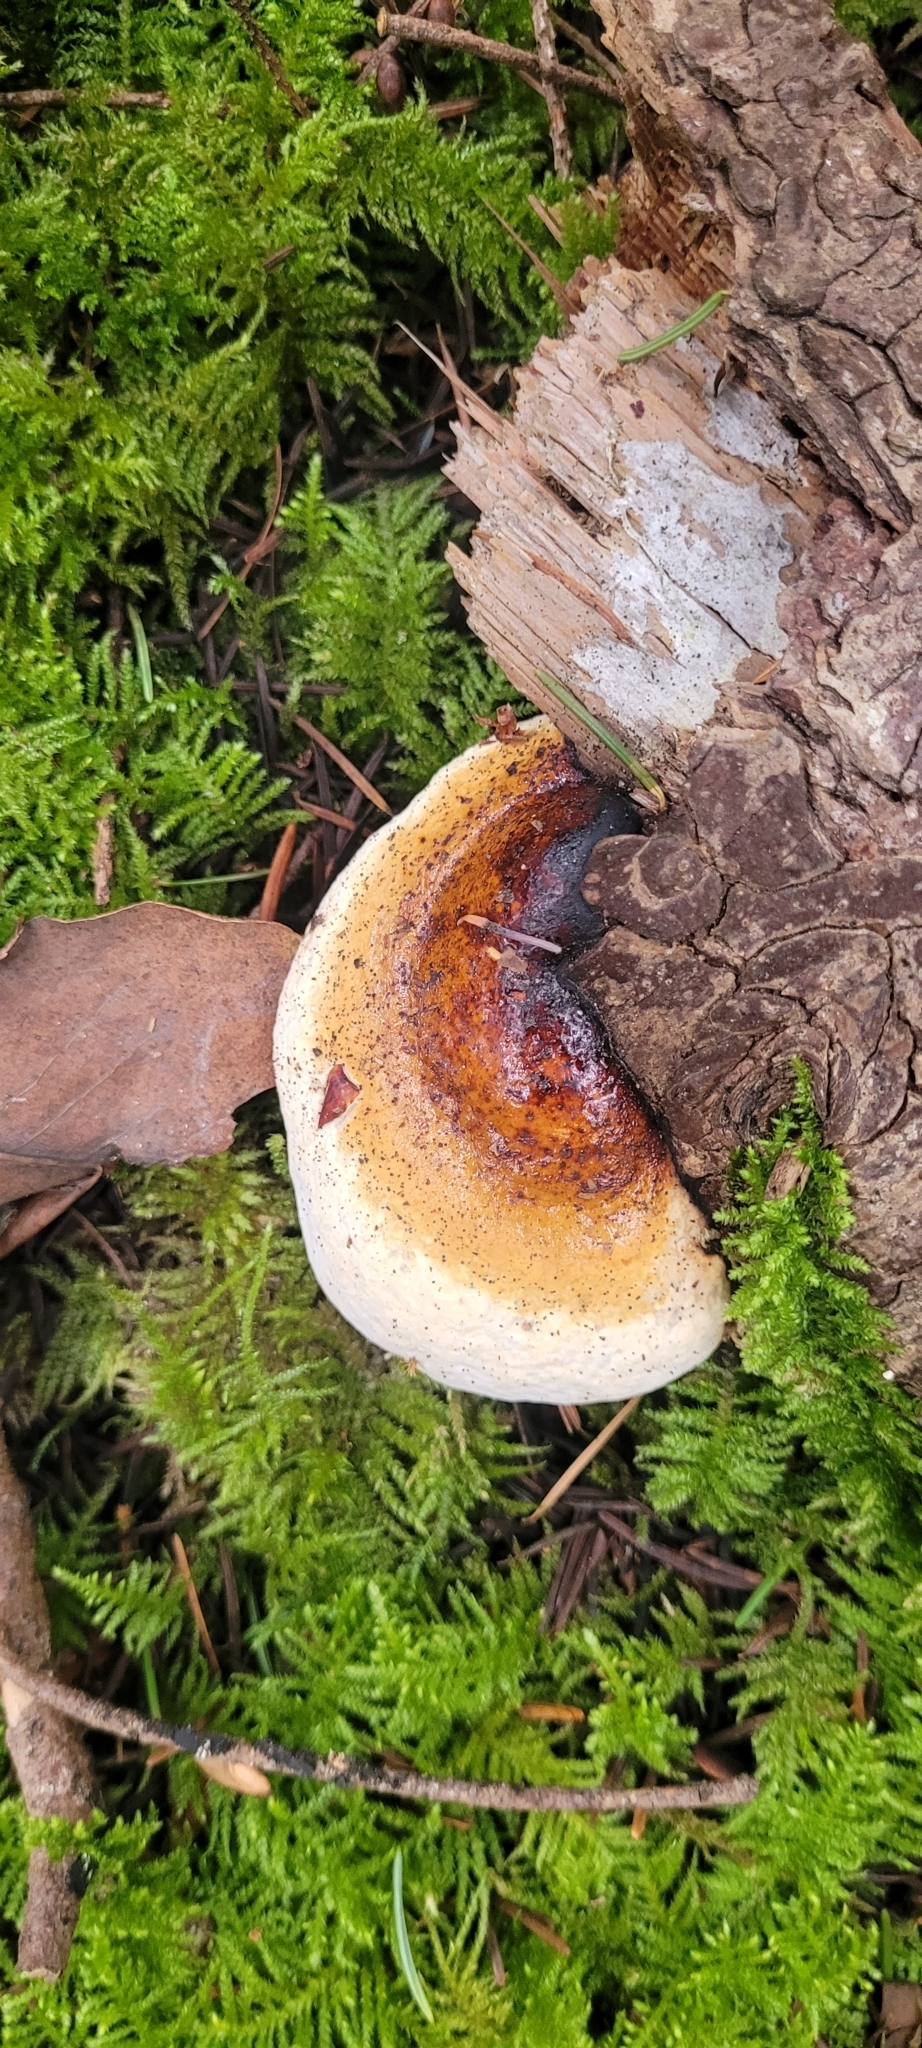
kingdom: Fungi
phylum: Basidiomycota
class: Agaricomycetes
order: Polyporales
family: Fomitopsidaceae
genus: Fomitopsis
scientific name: Fomitopsis mounceae
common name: Northern red belt
